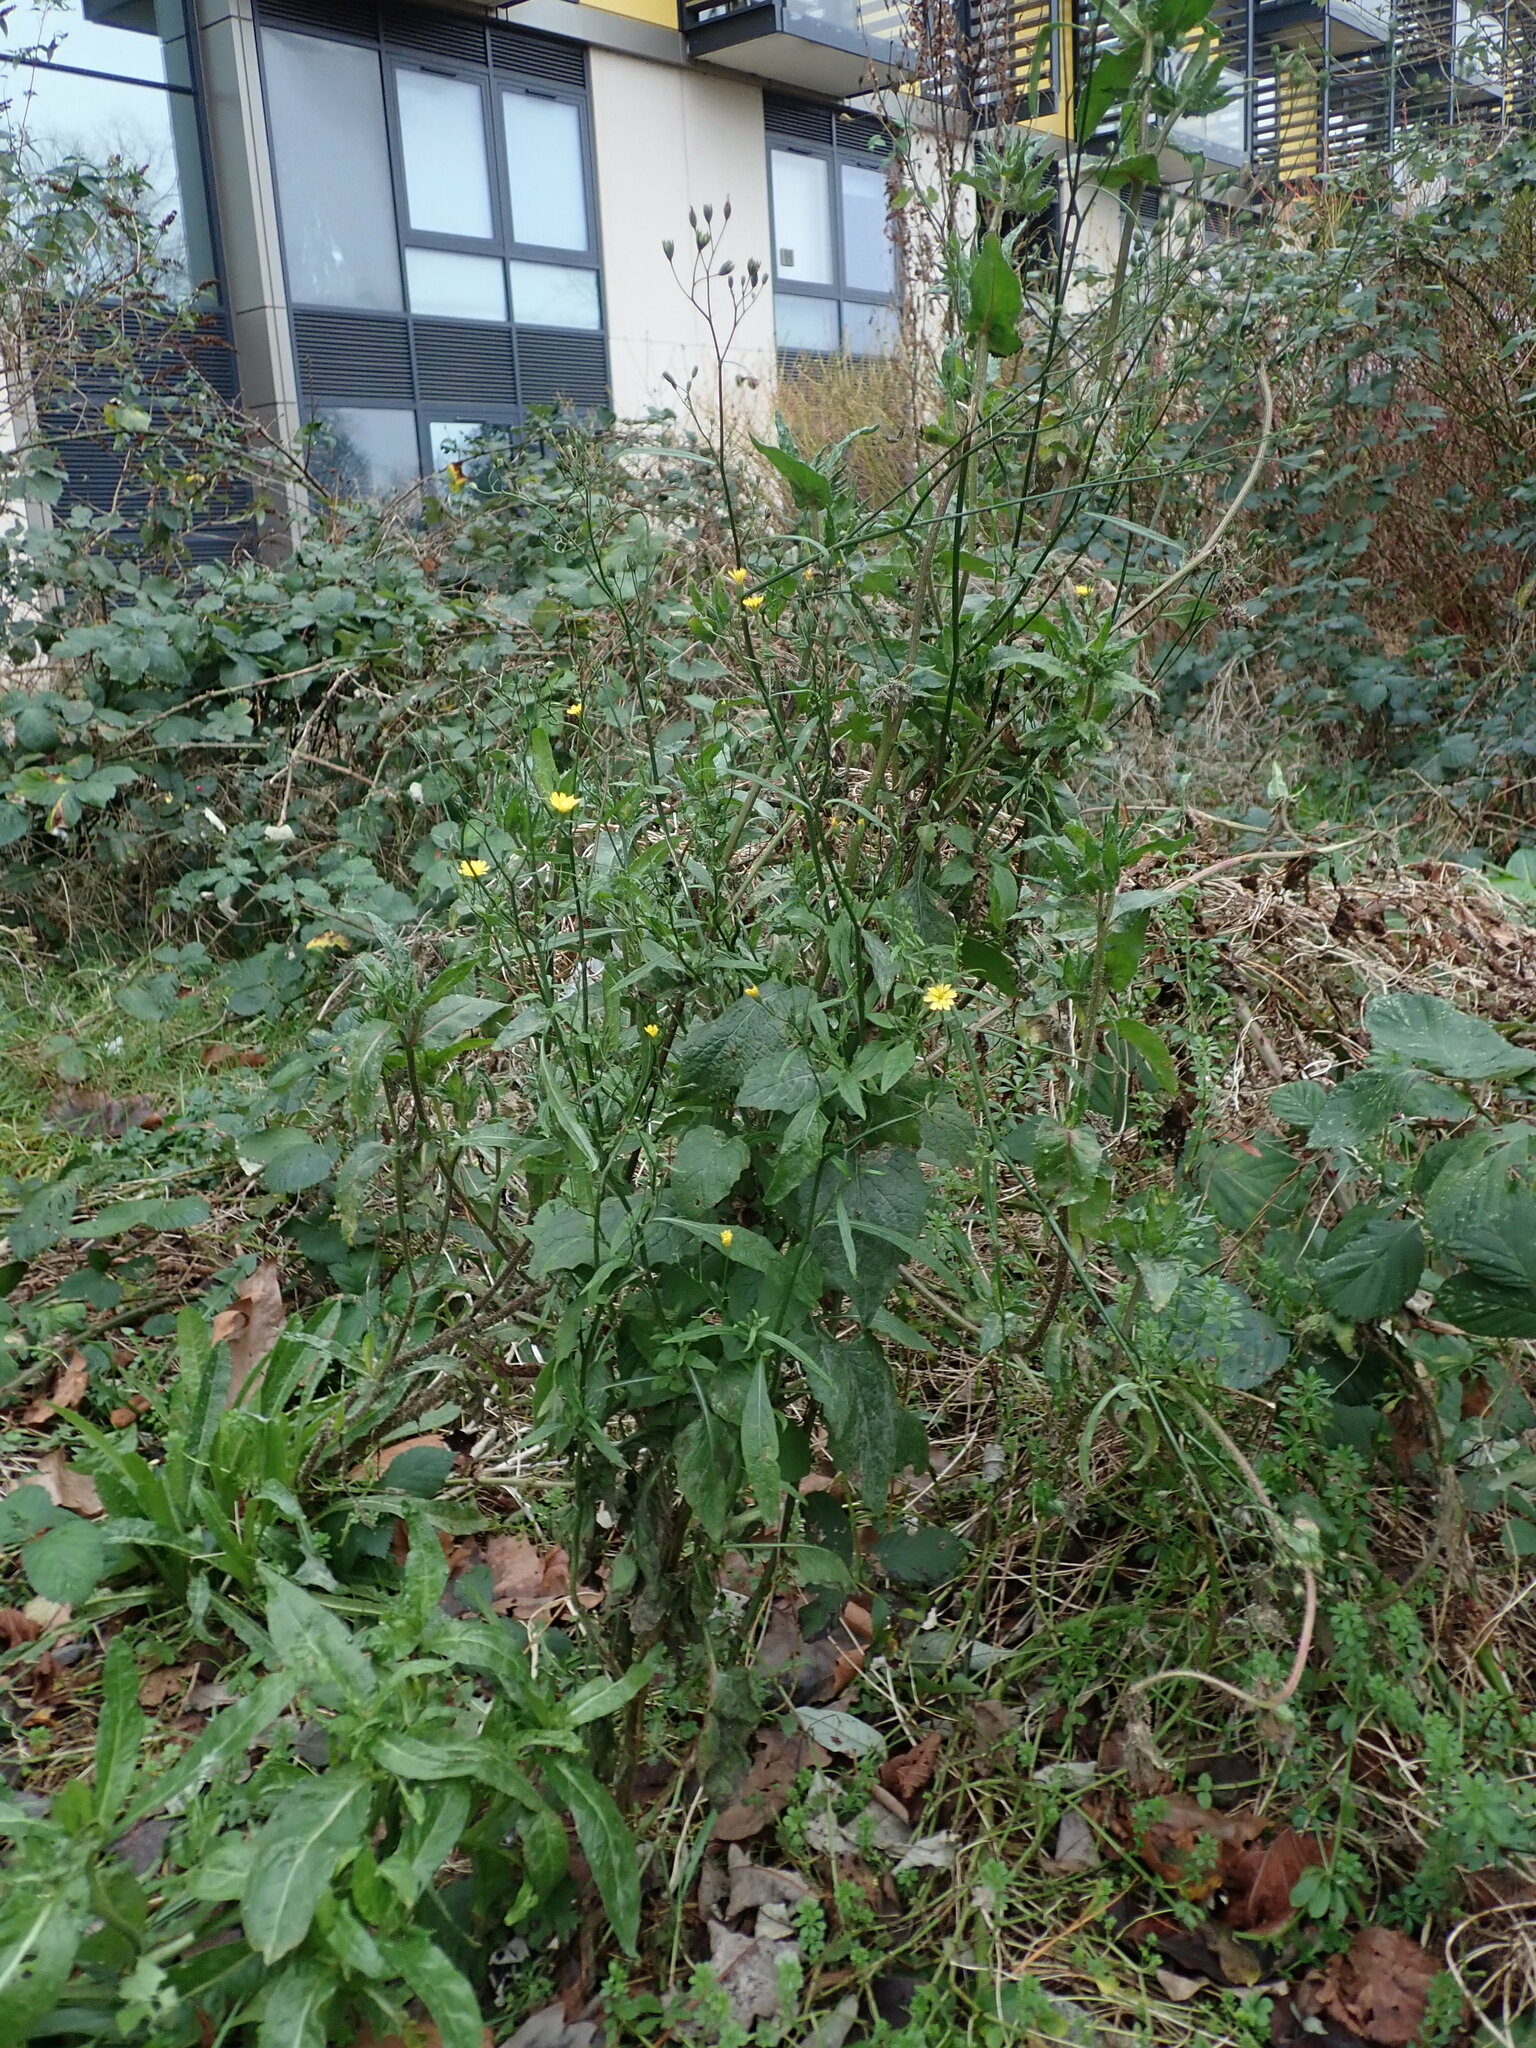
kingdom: Plantae
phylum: Tracheophyta
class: Magnoliopsida
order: Asterales
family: Asteraceae
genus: Lapsana
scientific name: Lapsana communis
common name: Nipplewort
